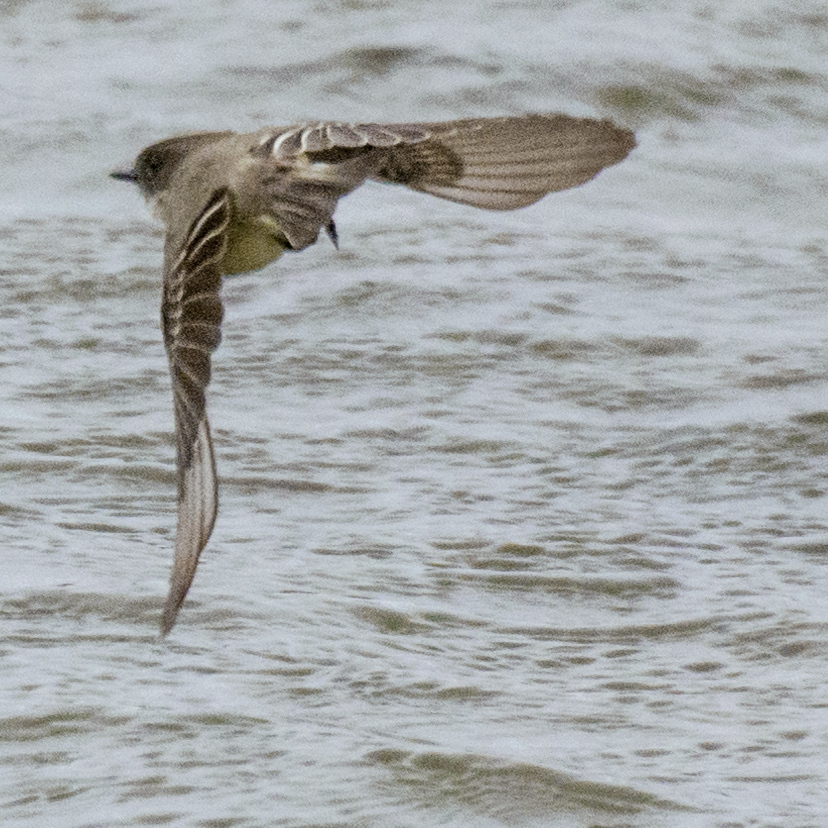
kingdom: Animalia
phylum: Chordata
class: Aves
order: Passeriformes
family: Tyrannidae
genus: Sayornis
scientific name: Sayornis phoebe
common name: Eastern phoebe
